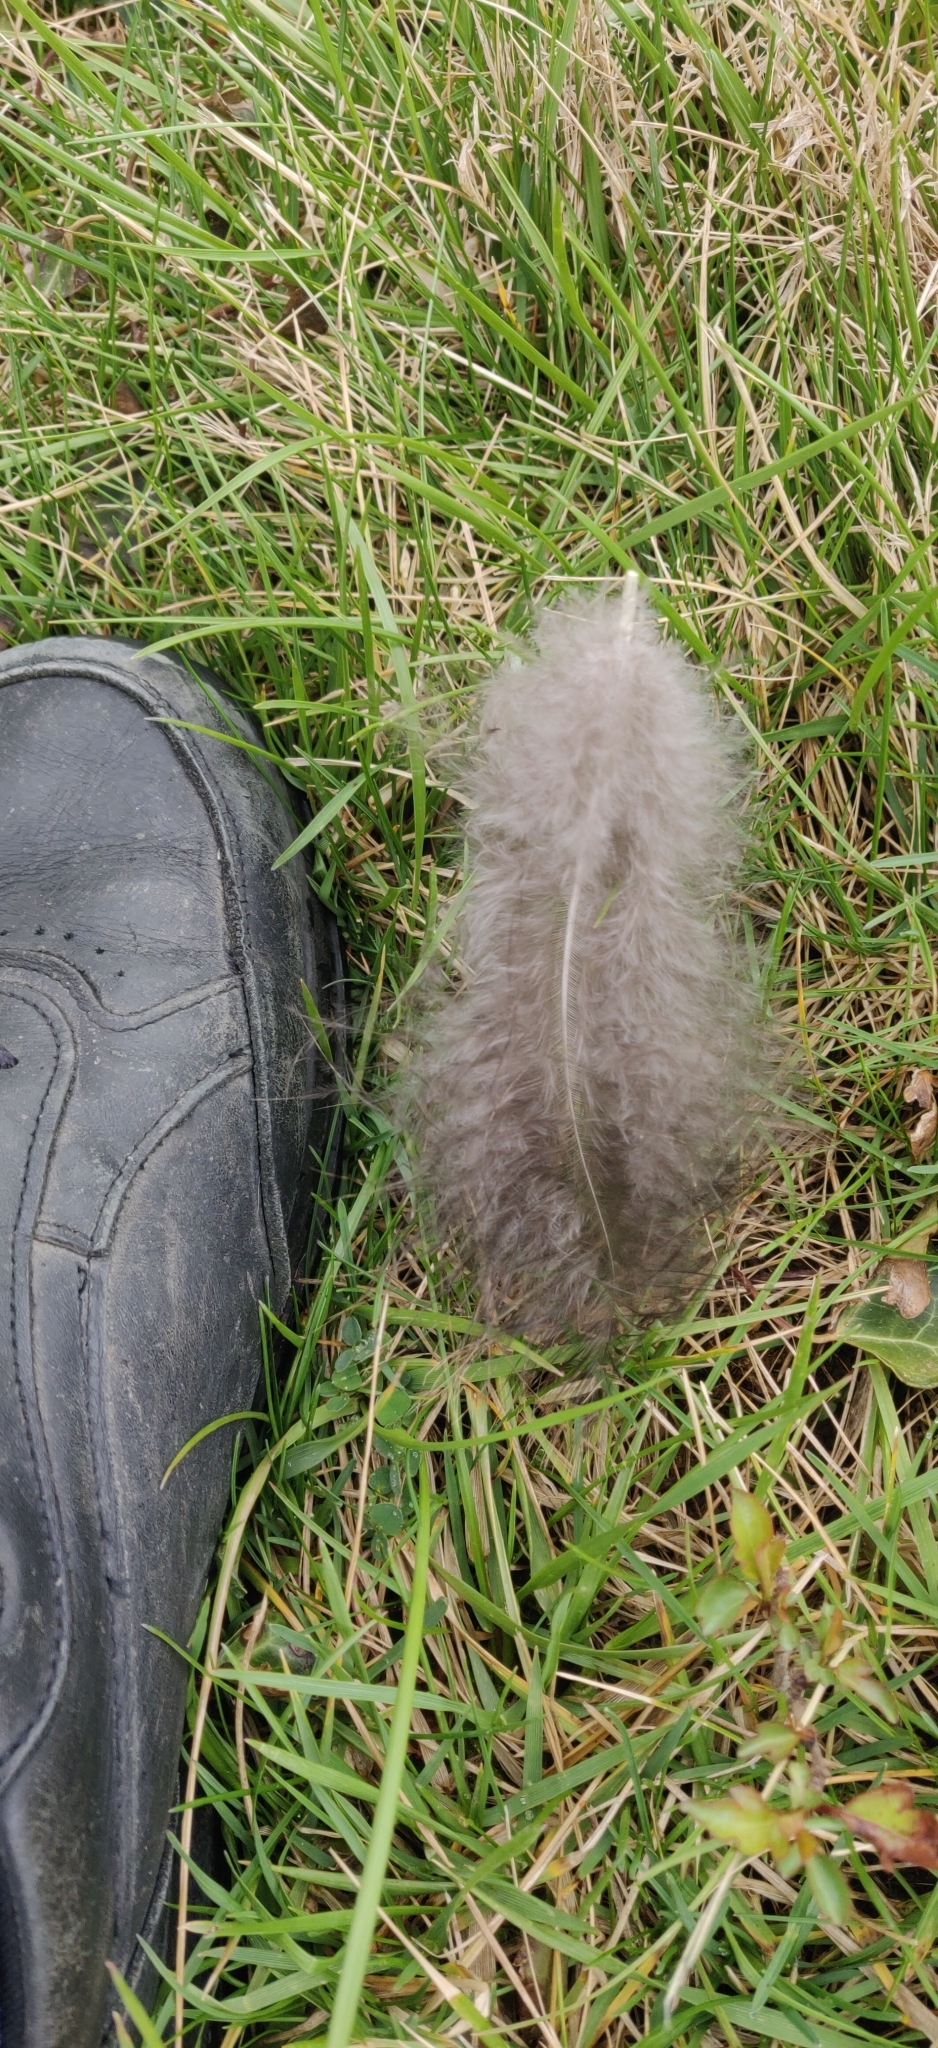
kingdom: Animalia
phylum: Chordata
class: Aves
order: Galliformes
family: Phasianidae
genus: Meleagris
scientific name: Meleagris gallopavo
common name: Wild turkey
